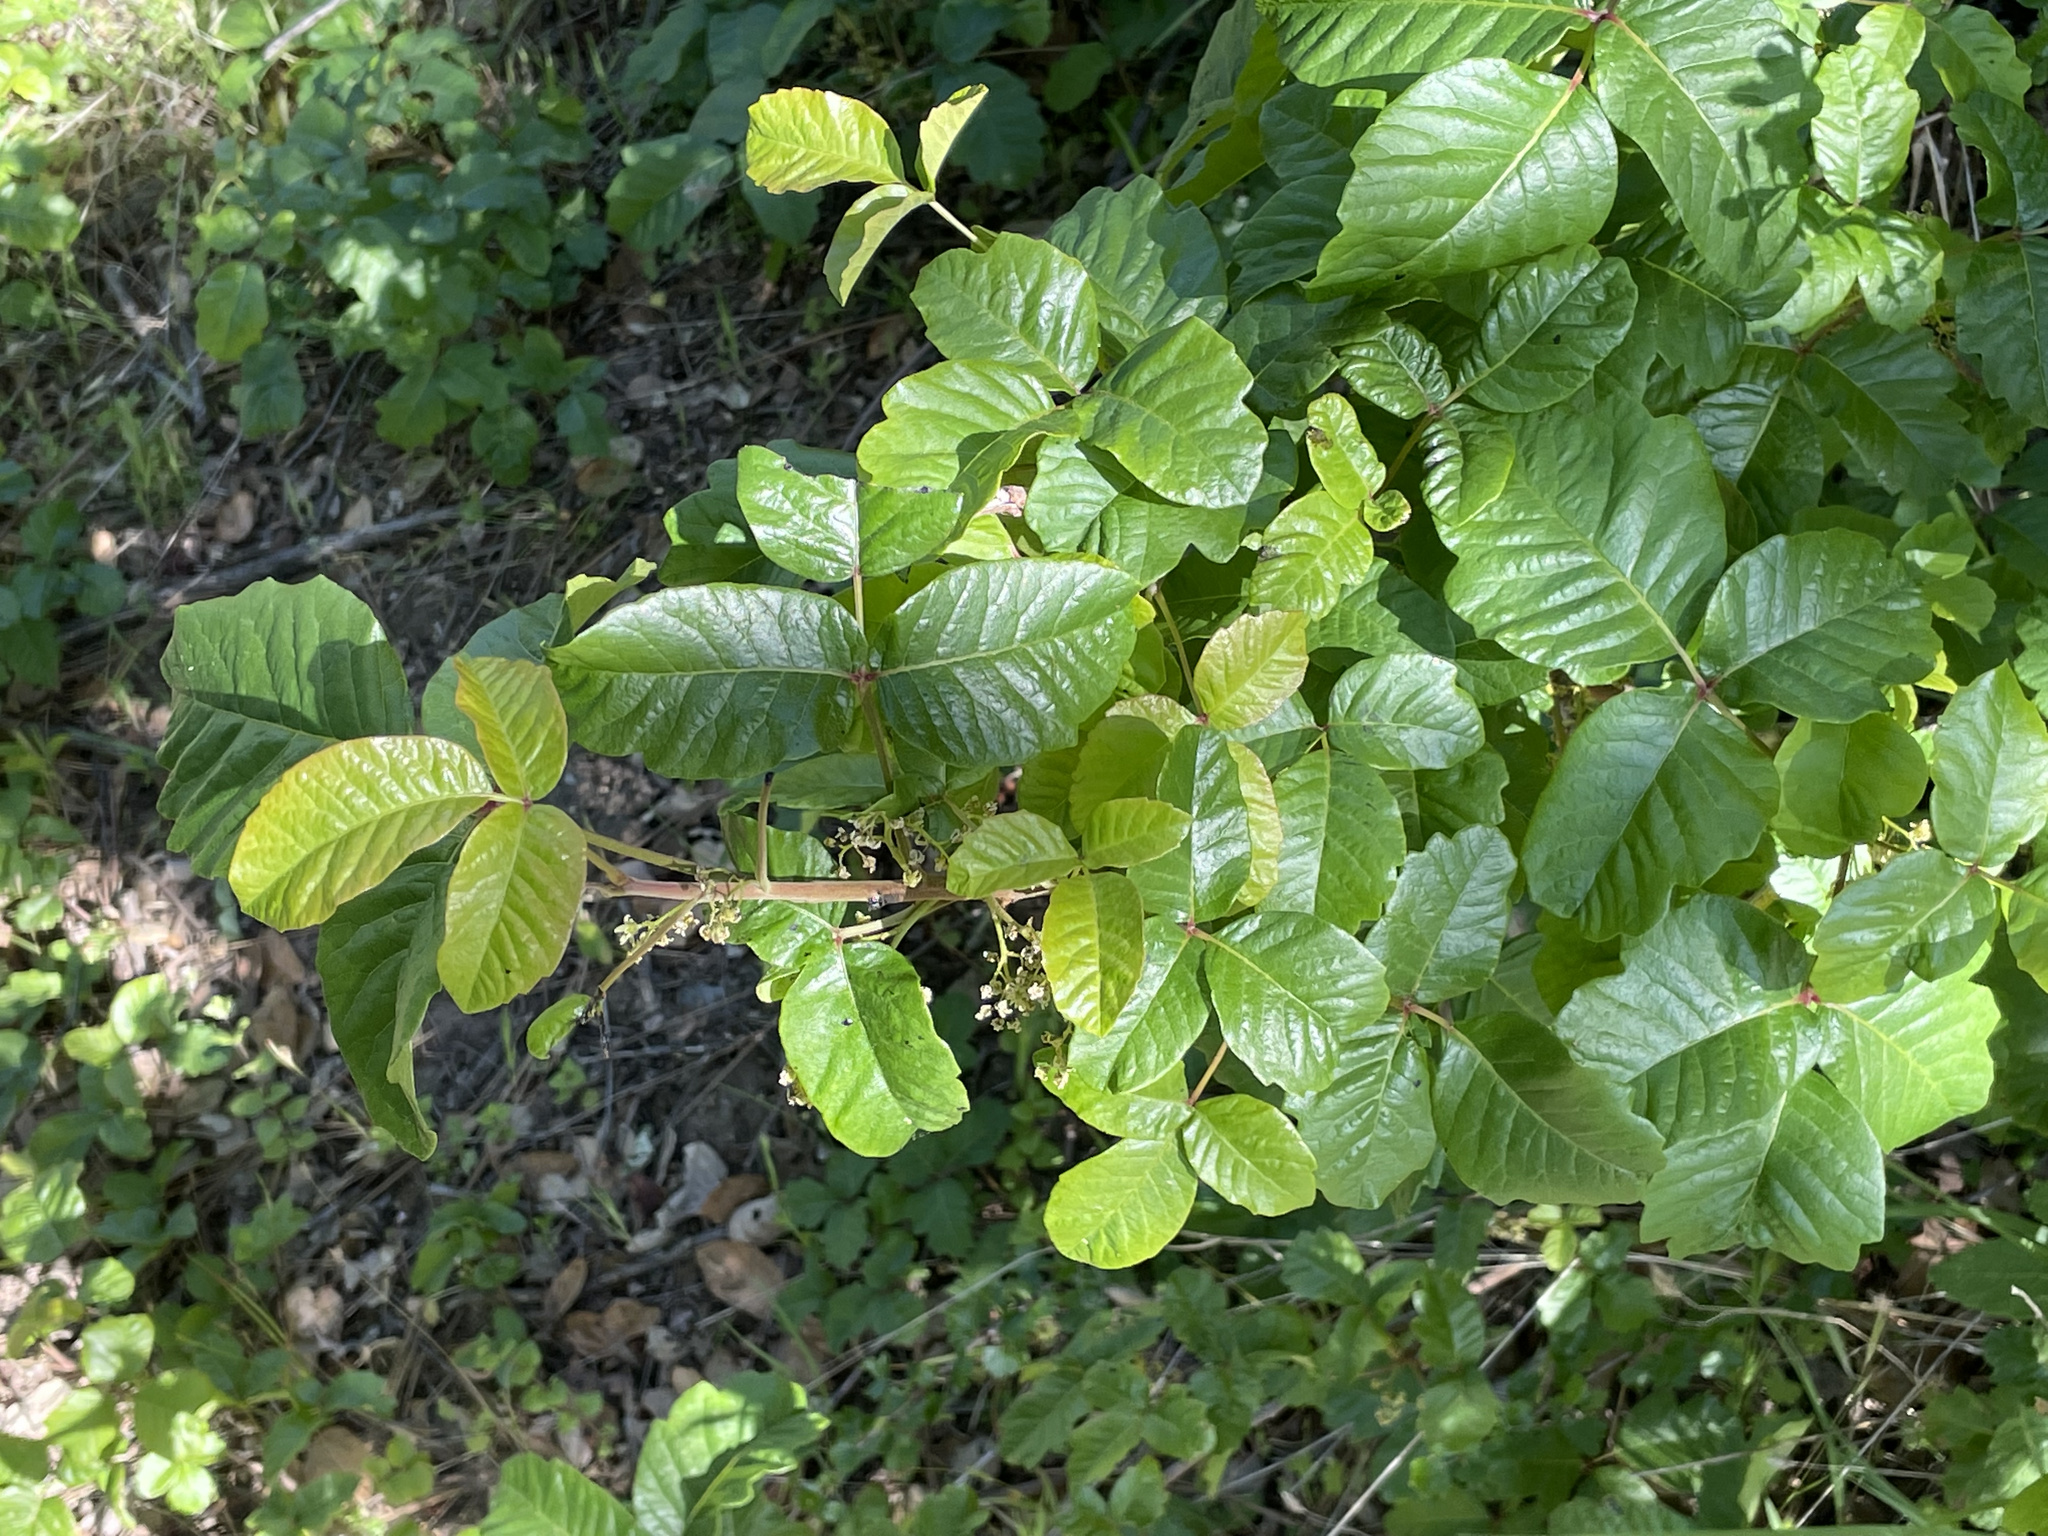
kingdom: Plantae
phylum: Tracheophyta
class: Magnoliopsida
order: Sapindales
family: Anacardiaceae
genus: Toxicodendron
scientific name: Toxicodendron diversilobum
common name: Pacific poison-oak
